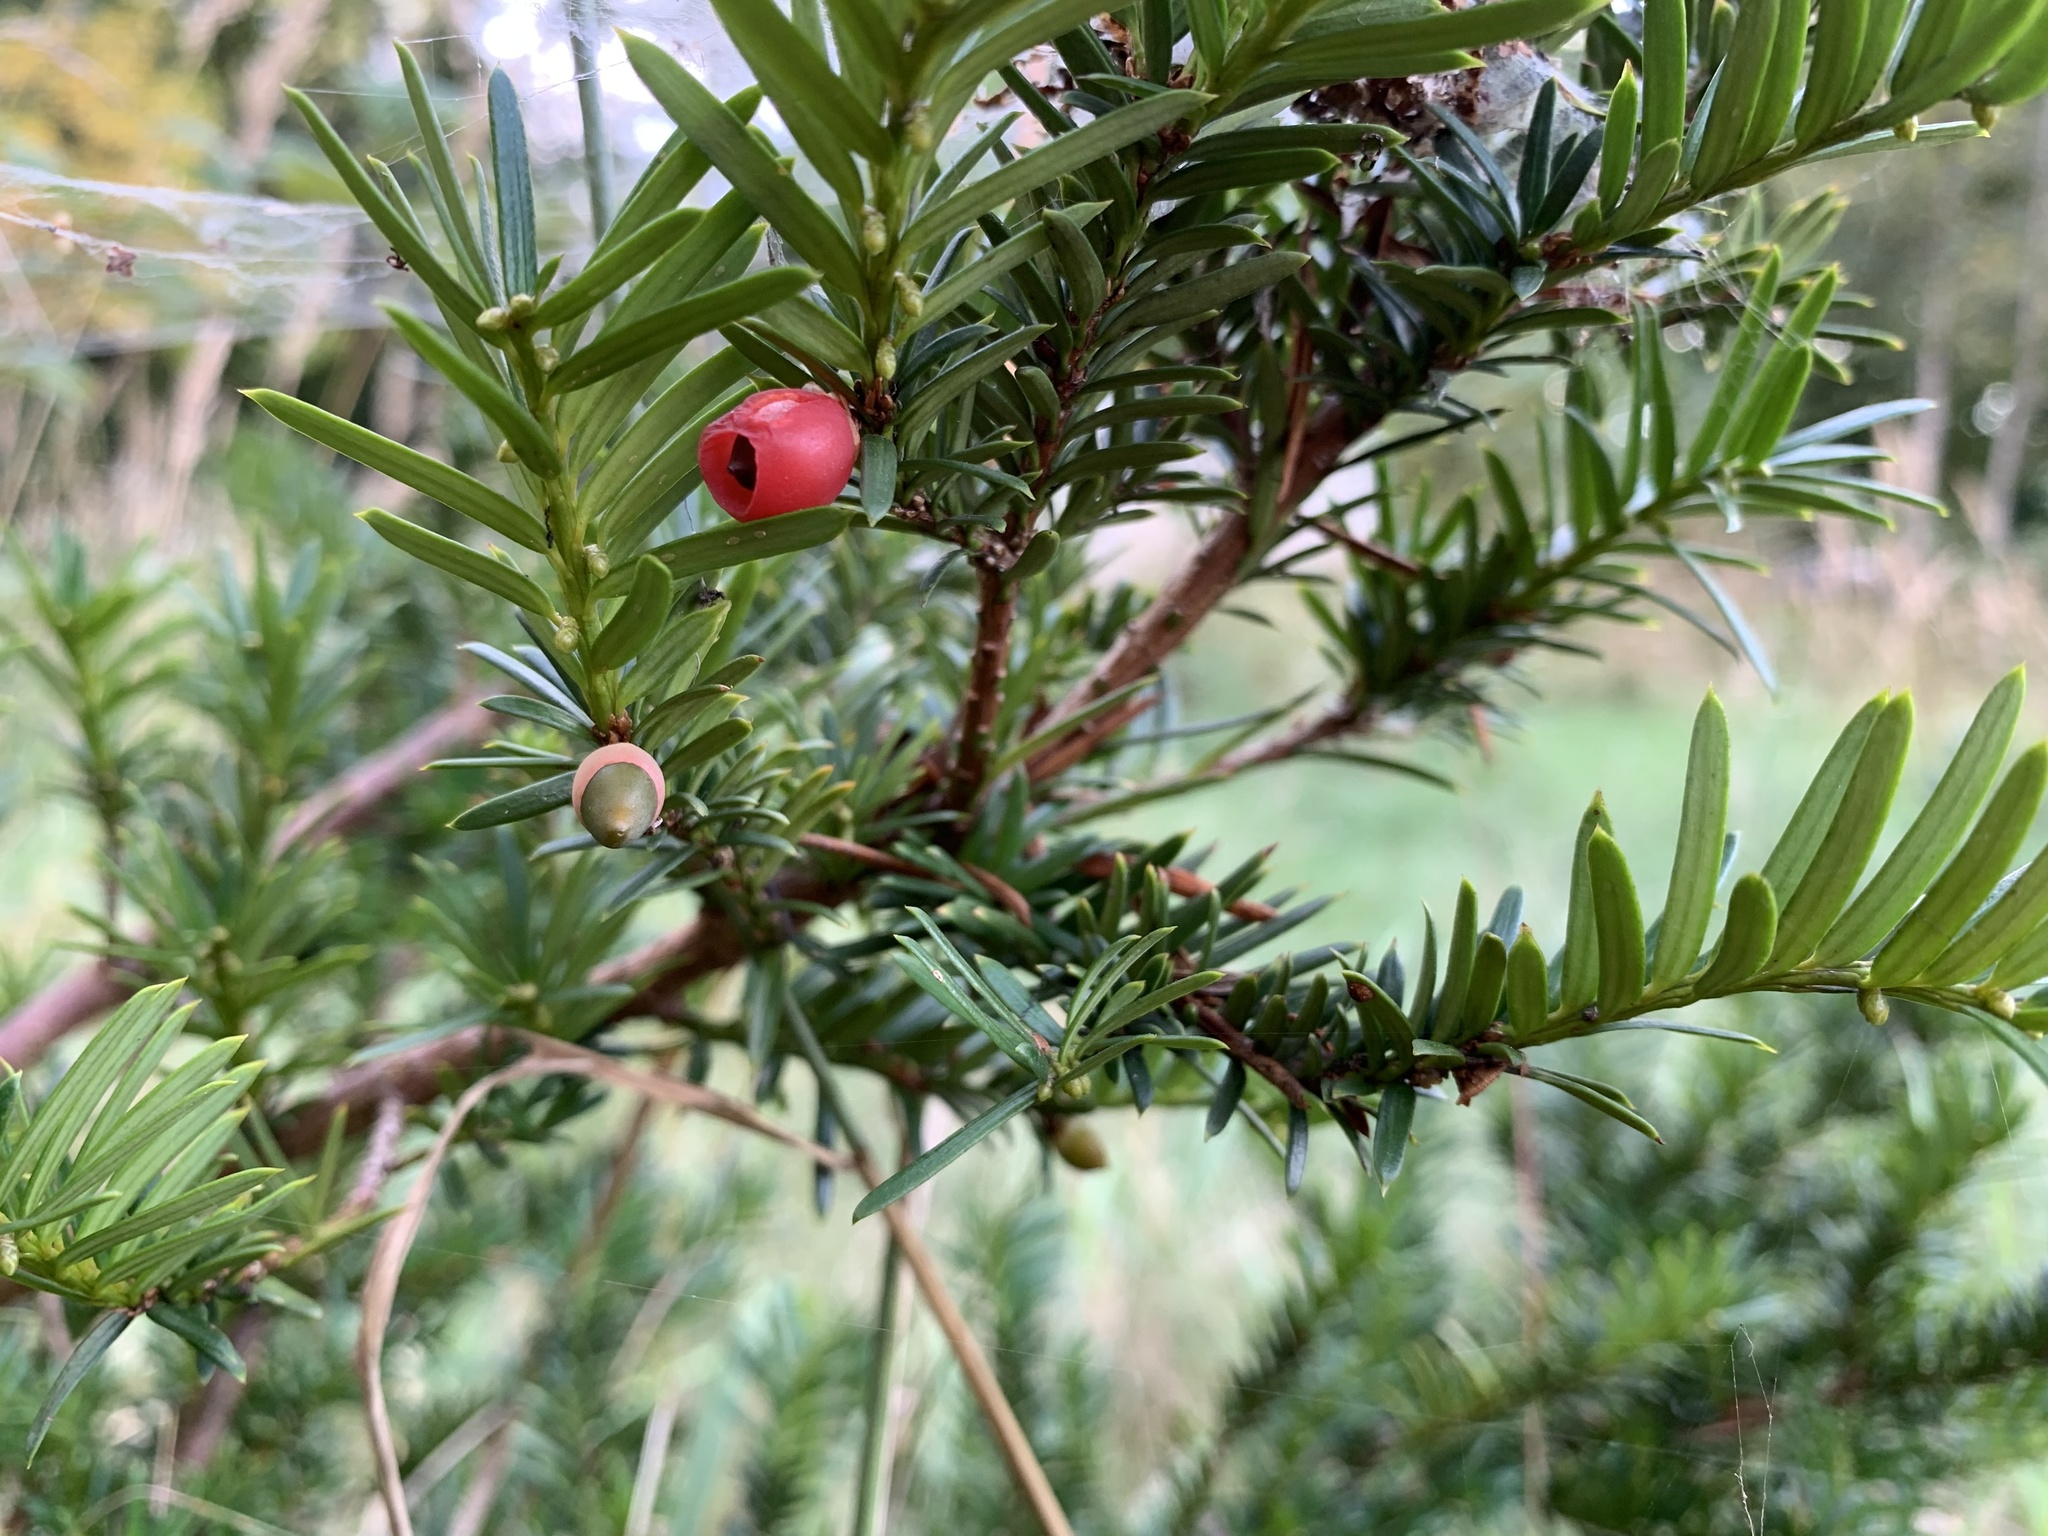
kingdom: Plantae
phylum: Tracheophyta
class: Pinopsida
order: Pinales
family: Taxaceae
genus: Taxus
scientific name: Taxus baccata
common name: Yew
